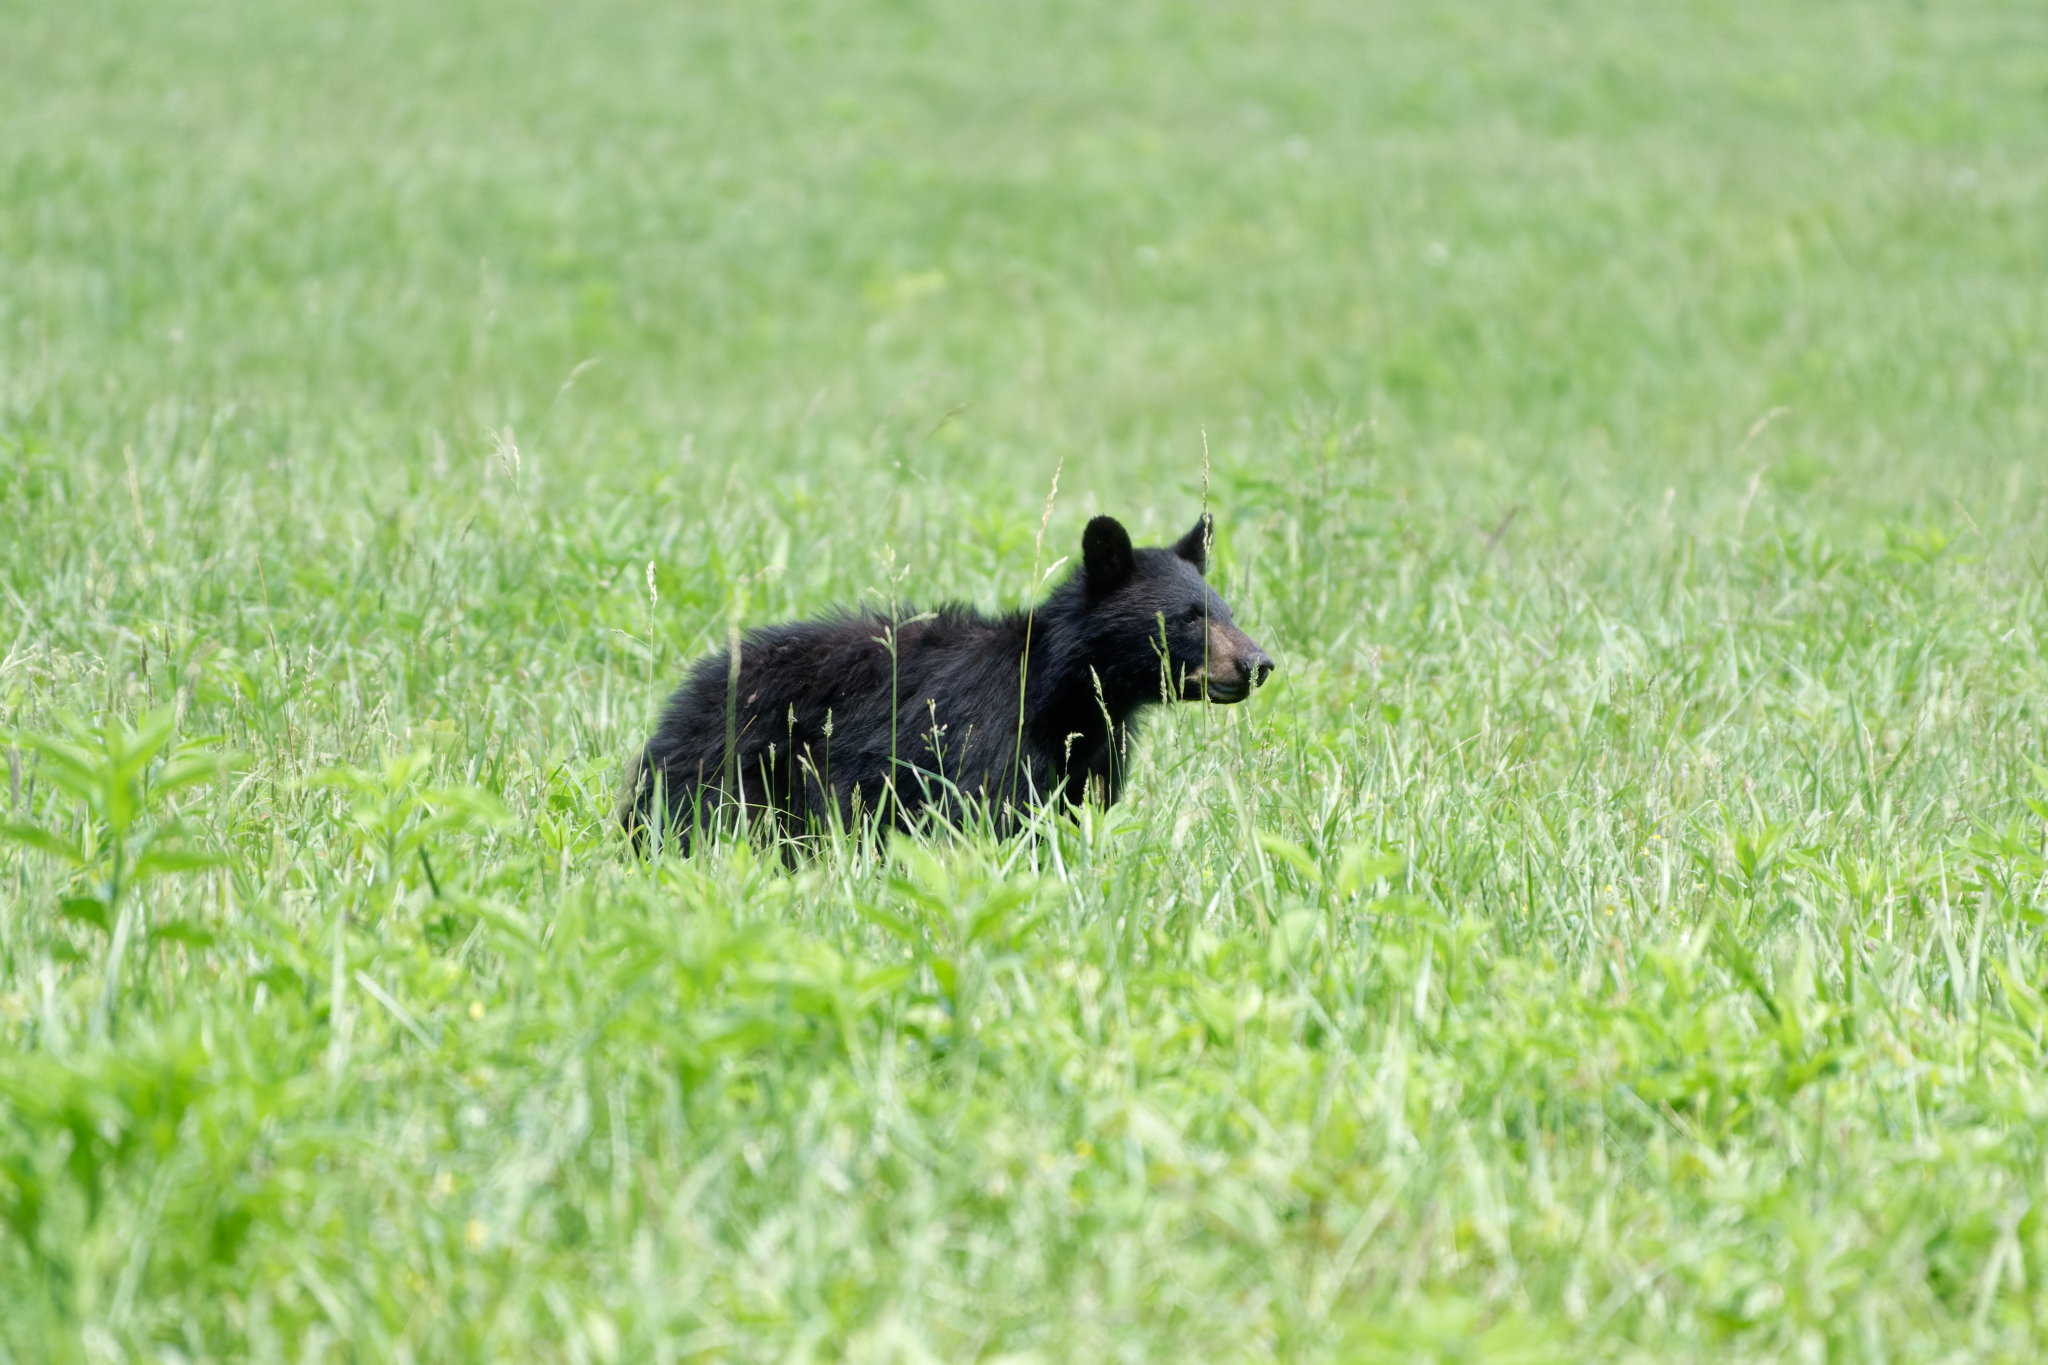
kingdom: Animalia
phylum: Chordata
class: Mammalia
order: Carnivora
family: Ursidae
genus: Ursus
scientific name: Ursus americanus
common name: American black bear
